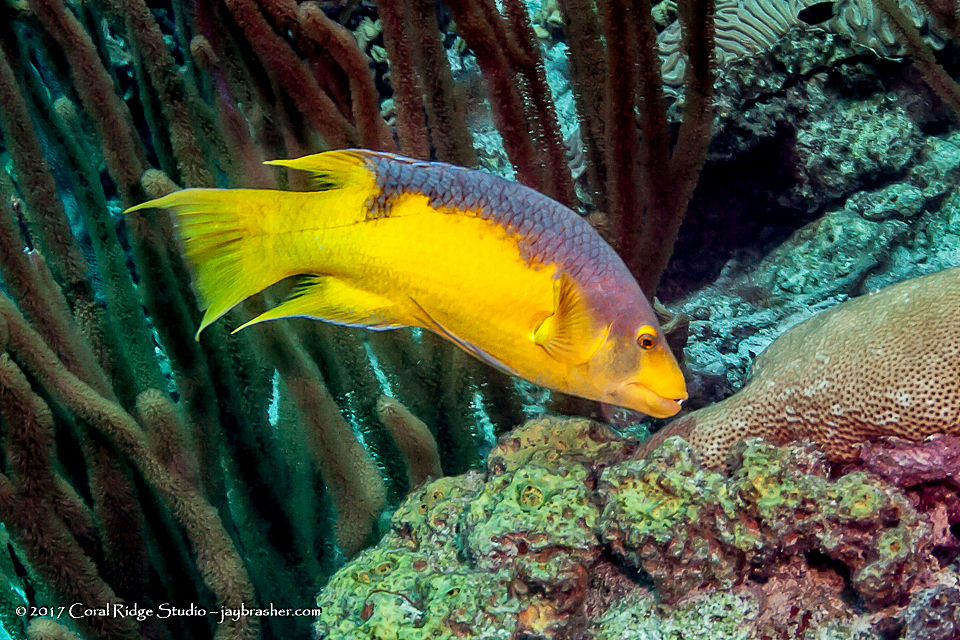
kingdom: Animalia
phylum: Chordata
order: Perciformes
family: Labridae
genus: Bodianus
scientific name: Bodianus rufus
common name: Spanish hogfish
